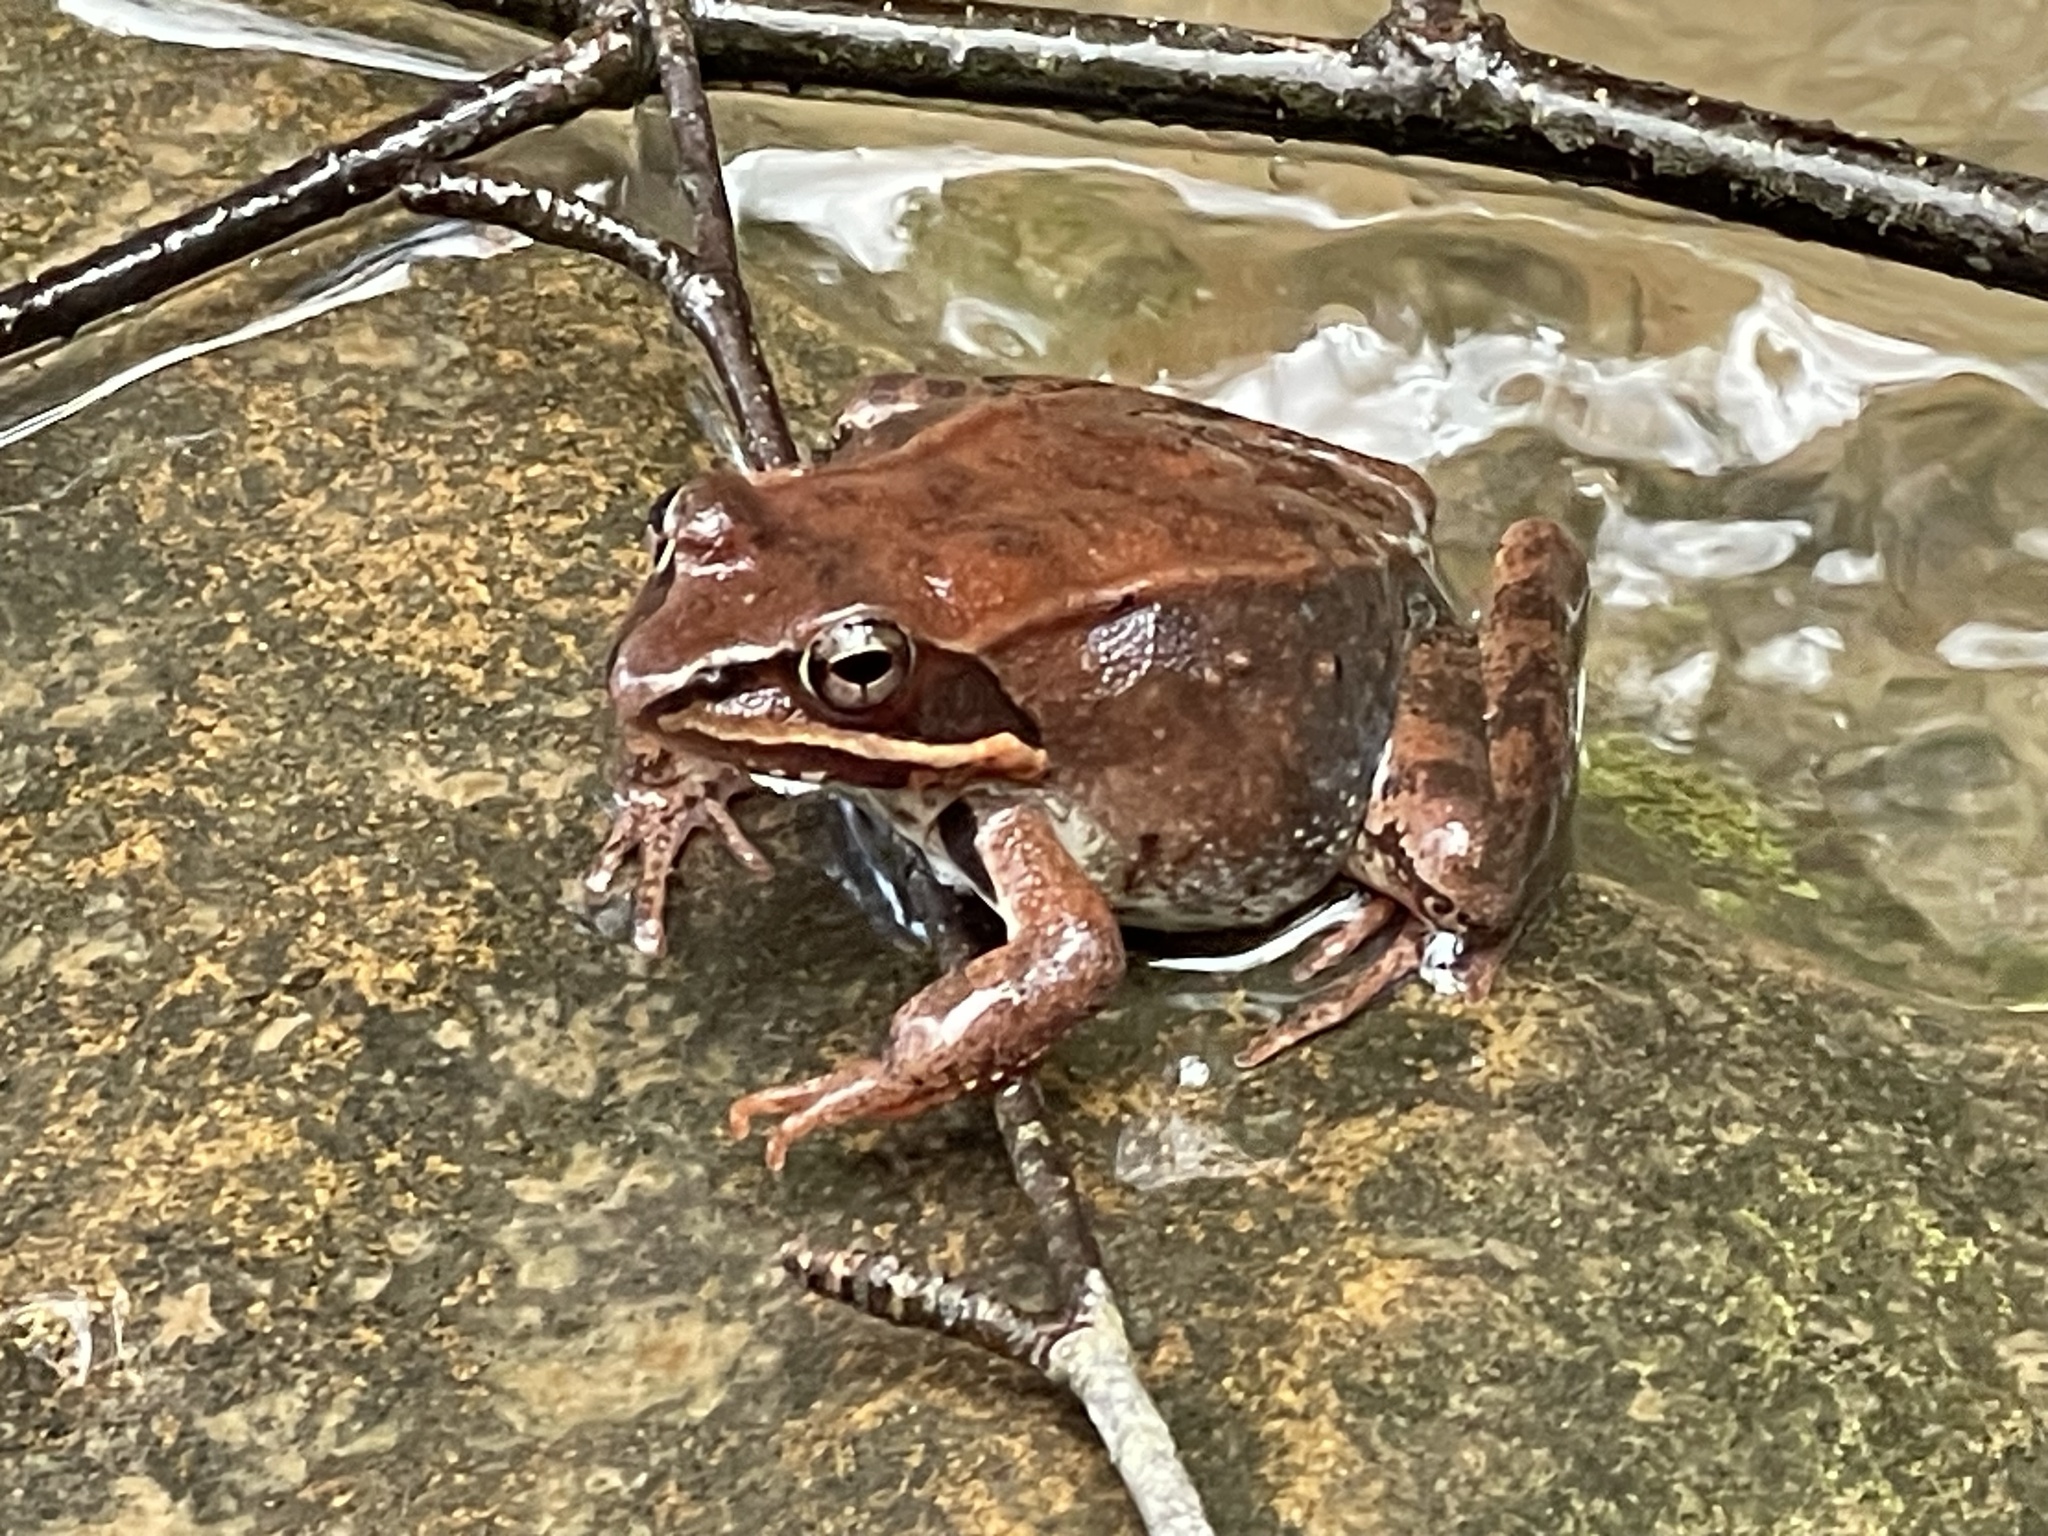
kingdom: Animalia
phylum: Chordata
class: Amphibia
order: Anura
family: Ranidae
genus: Lithobates
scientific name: Lithobates sylvaticus
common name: Wood frog
